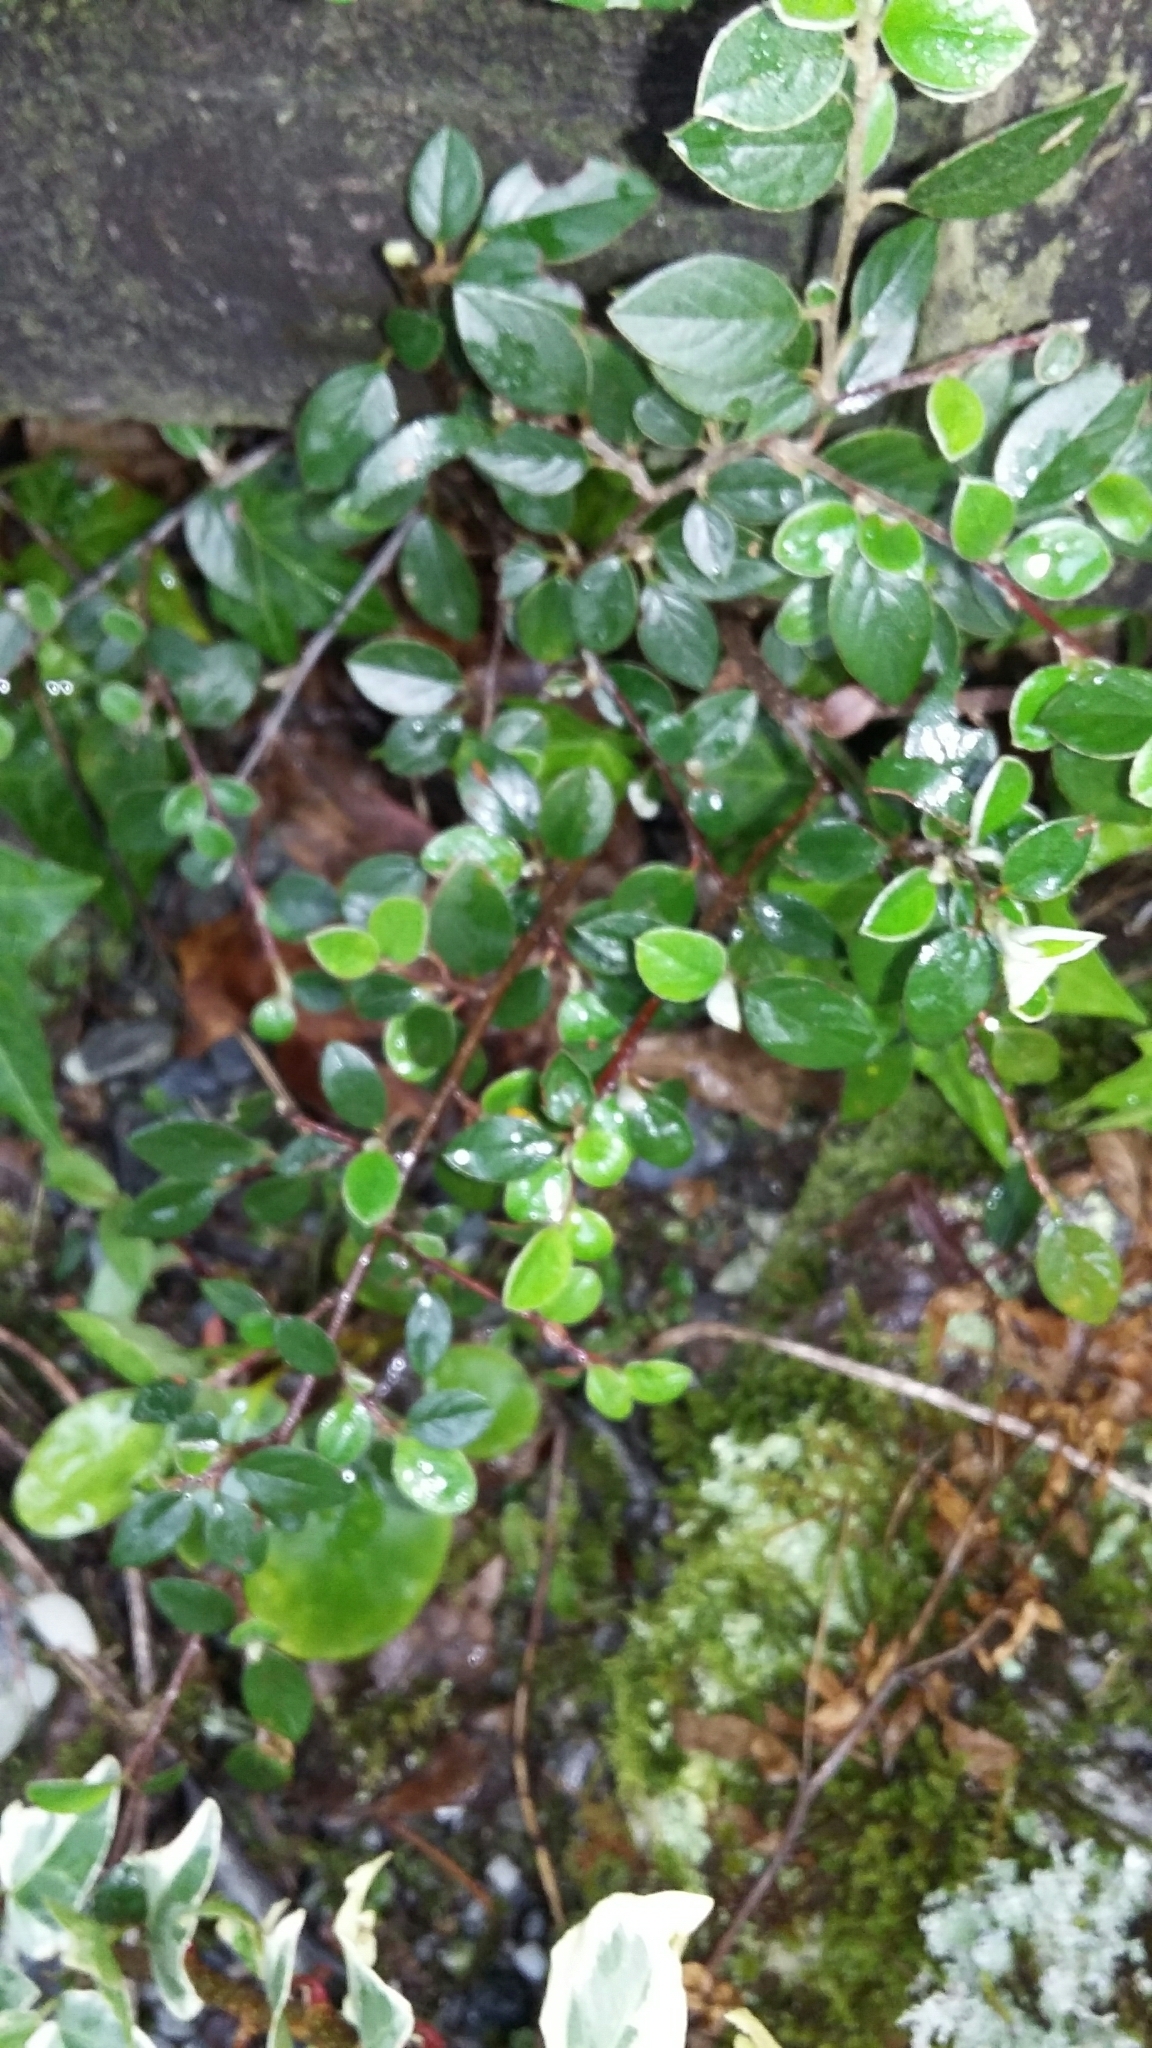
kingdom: Plantae
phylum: Tracheophyta
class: Magnoliopsida
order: Rosales
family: Rosaceae
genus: Cotoneaster
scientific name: Cotoneaster simonsii
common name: Himalayan cotoneaster
